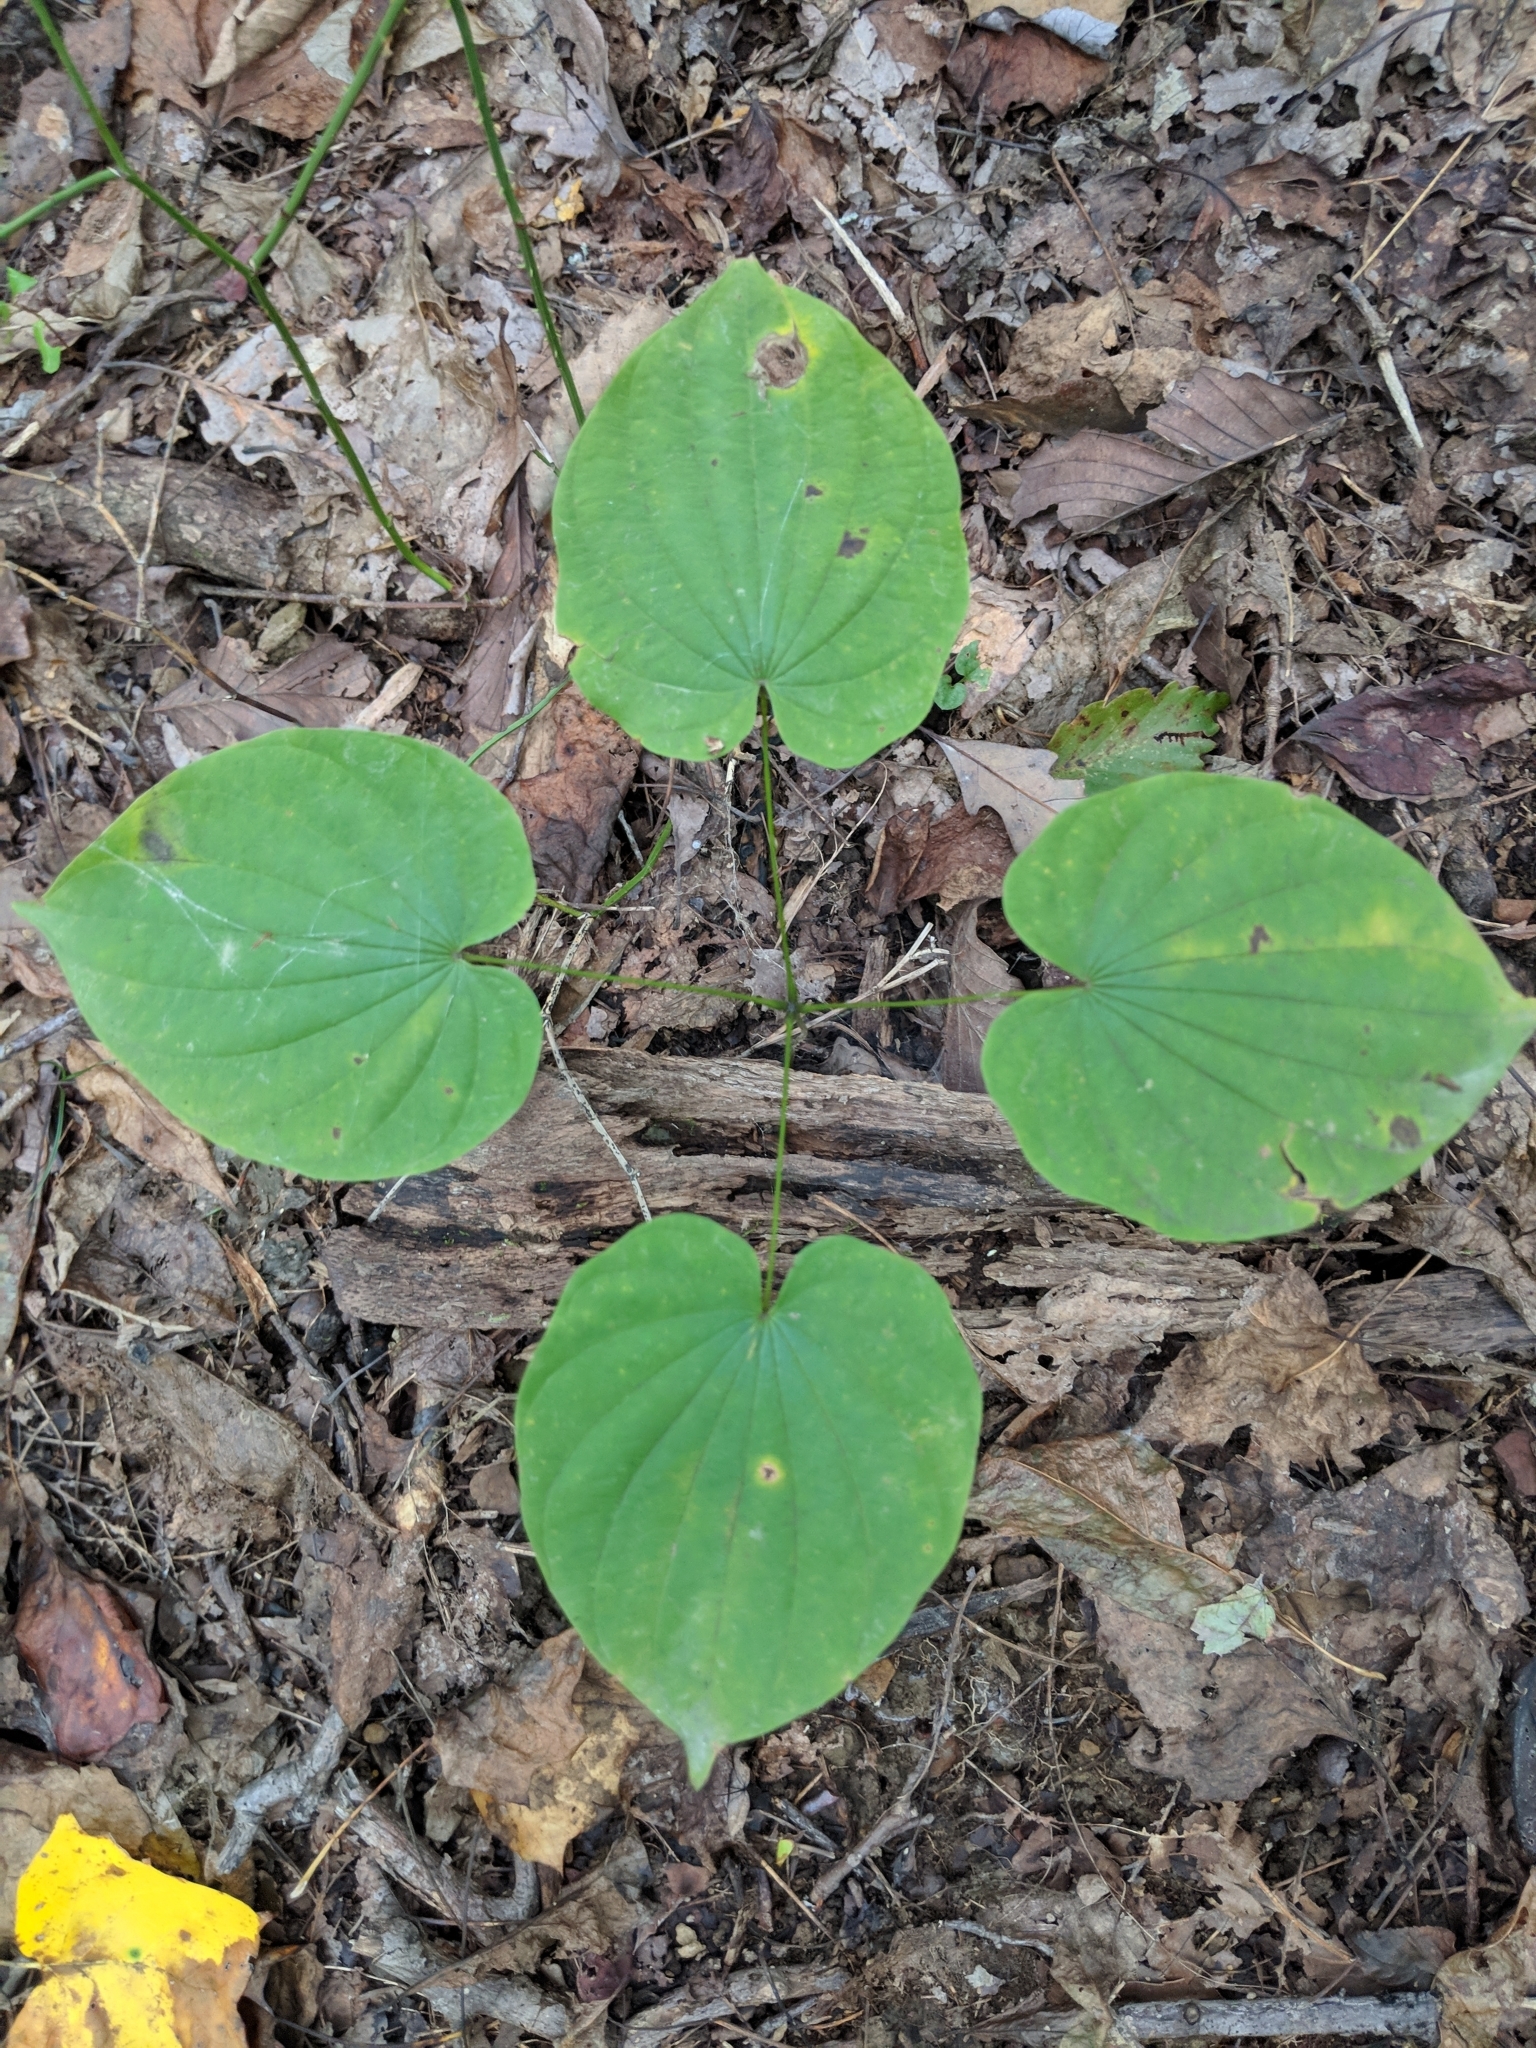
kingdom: Plantae
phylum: Tracheophyta
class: Liliopsida
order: Dioscoreales
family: Dioscoreaceae
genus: Dioscorea
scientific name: Dioscorea villosa
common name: Wild yam
